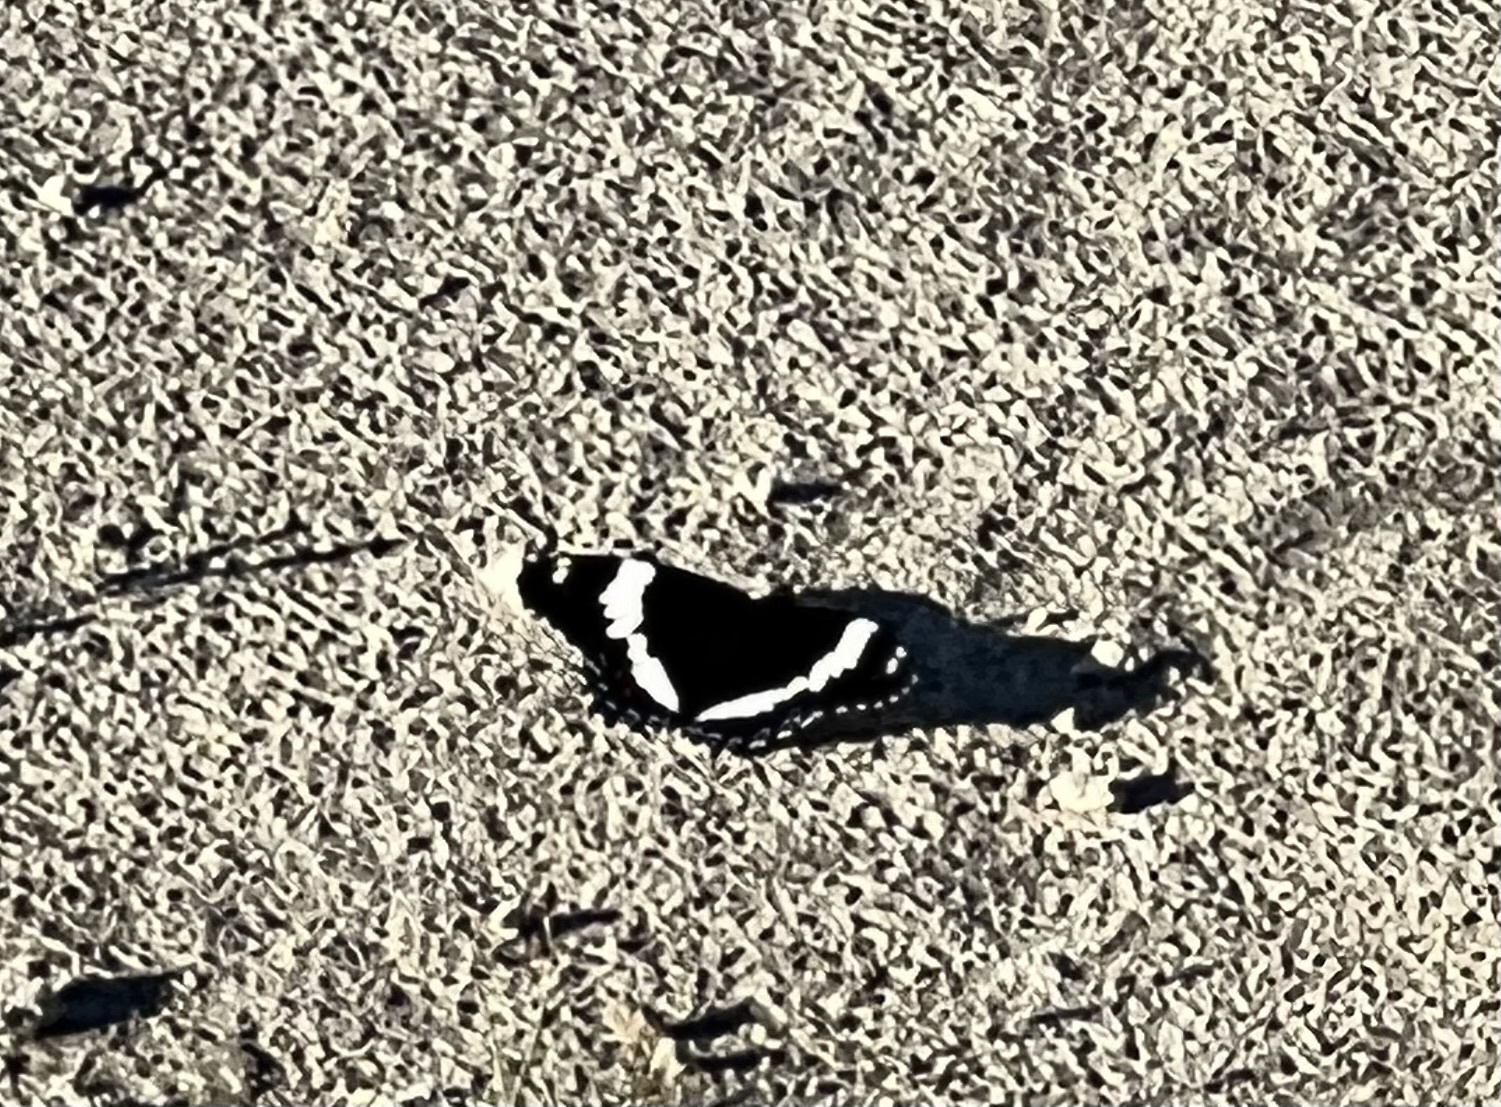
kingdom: Animalia
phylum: Arthropoda
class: Insecta
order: Lepidoptera
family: Nymphalidae
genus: Limenitis
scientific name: Limenitis arthemis
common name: Red-spotted admiral
